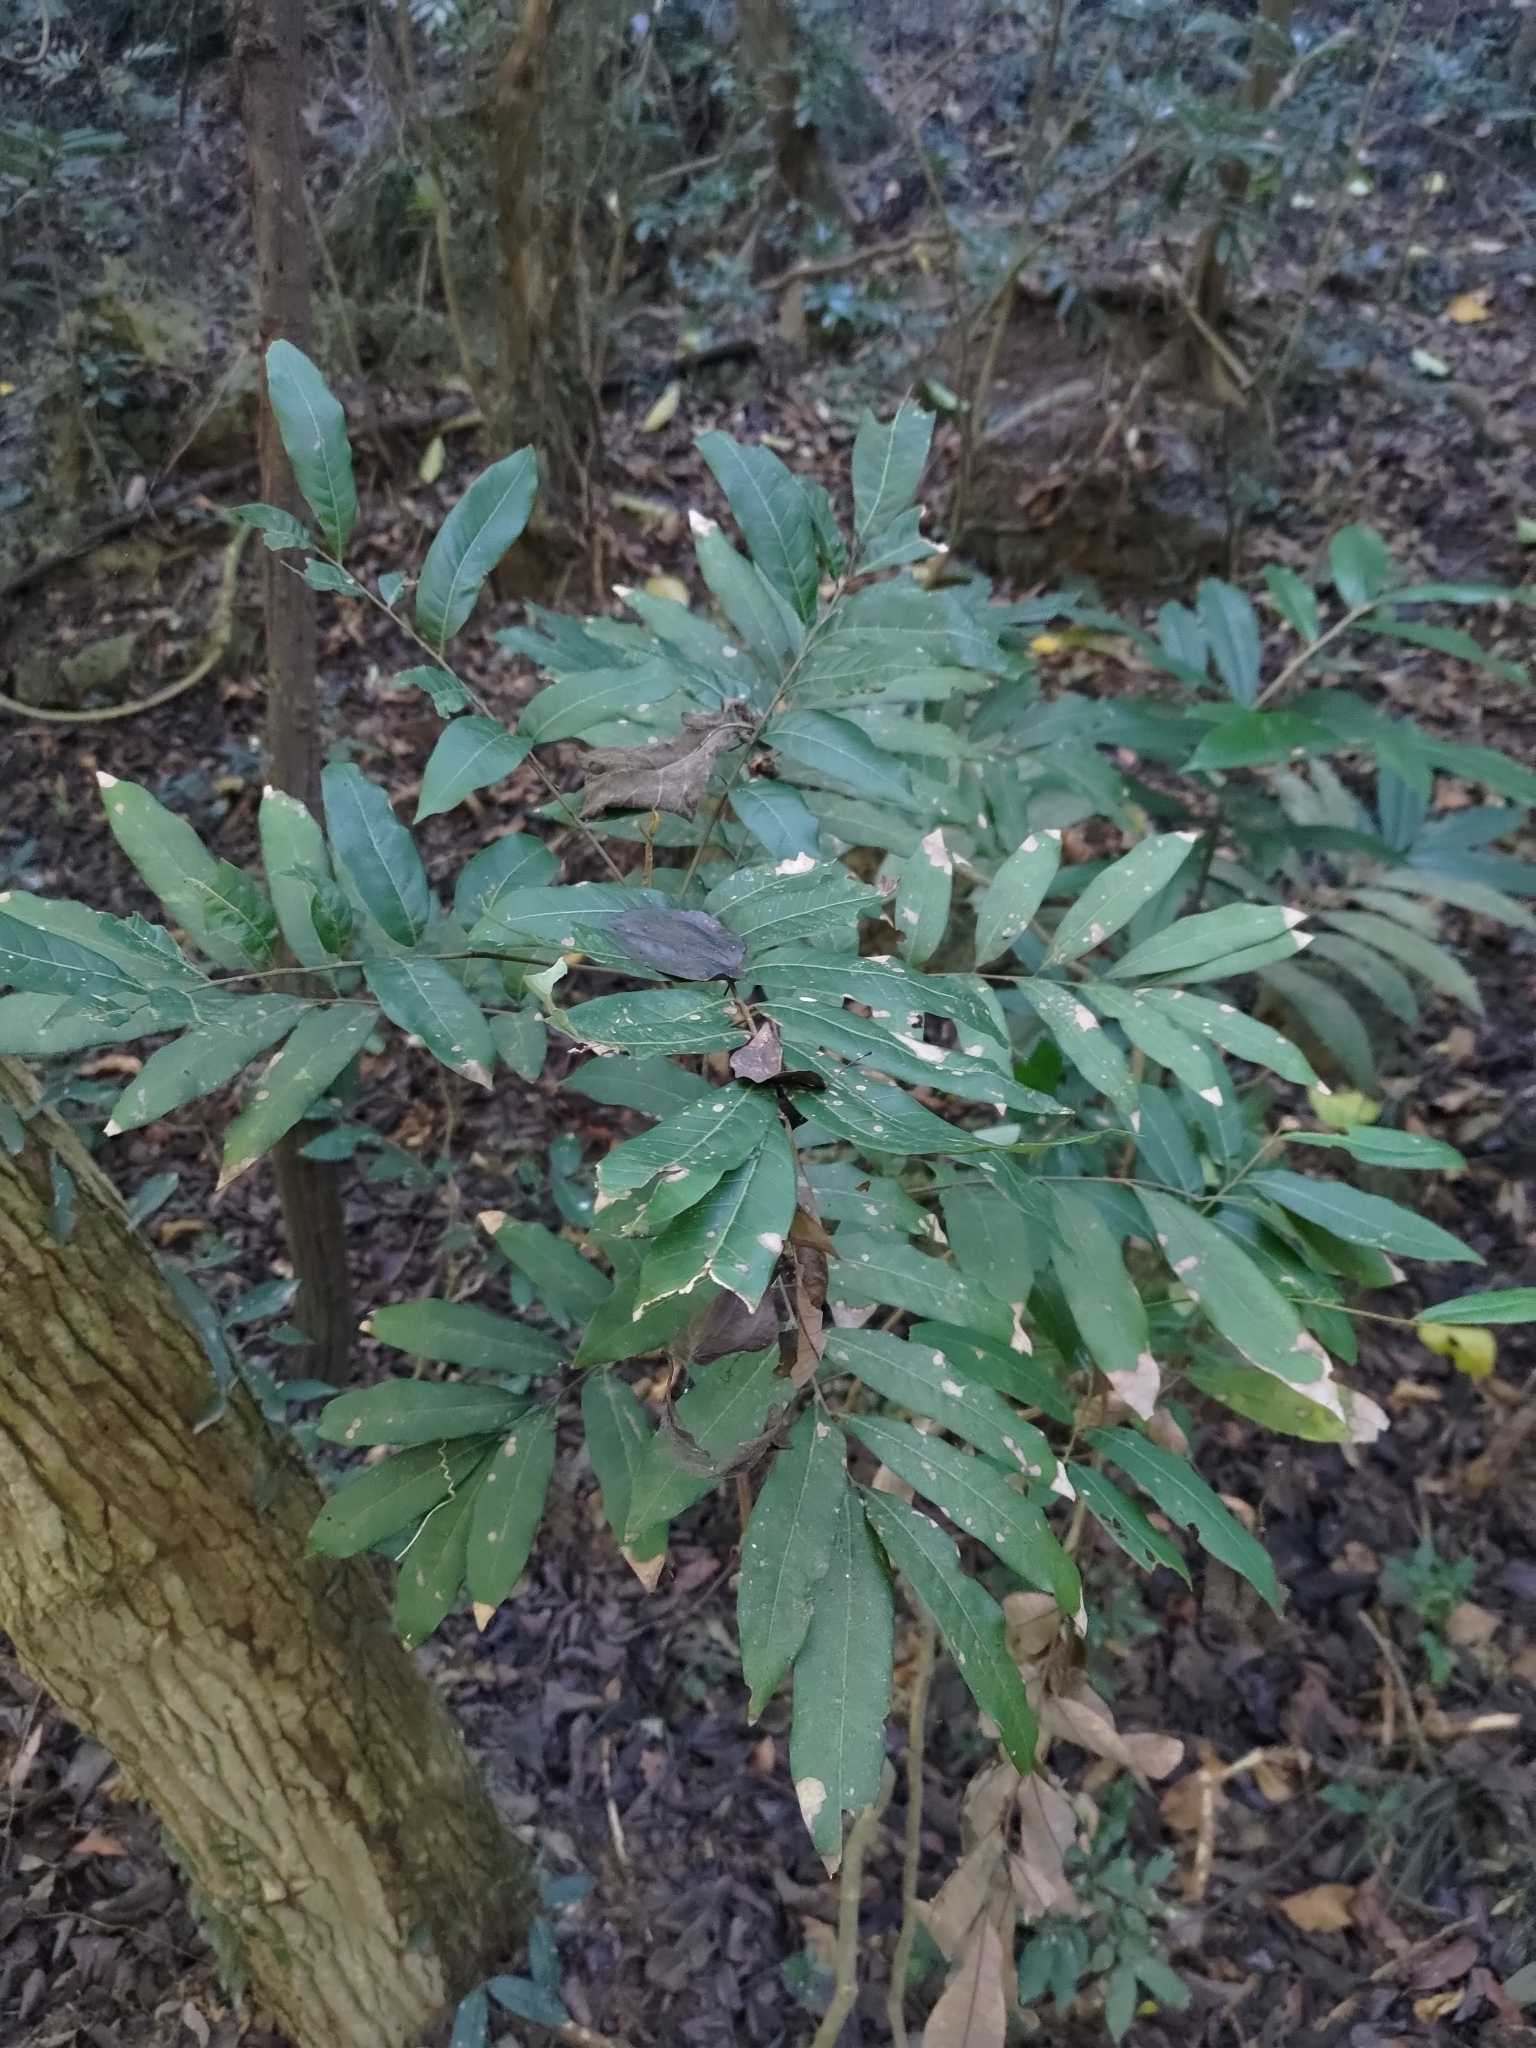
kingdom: Plantae
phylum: Tracheophyta
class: Magnoliopsida
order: Sapindales
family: Sapindaceae
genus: Dimocarpus
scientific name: Dimocarpus longan
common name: Longan
